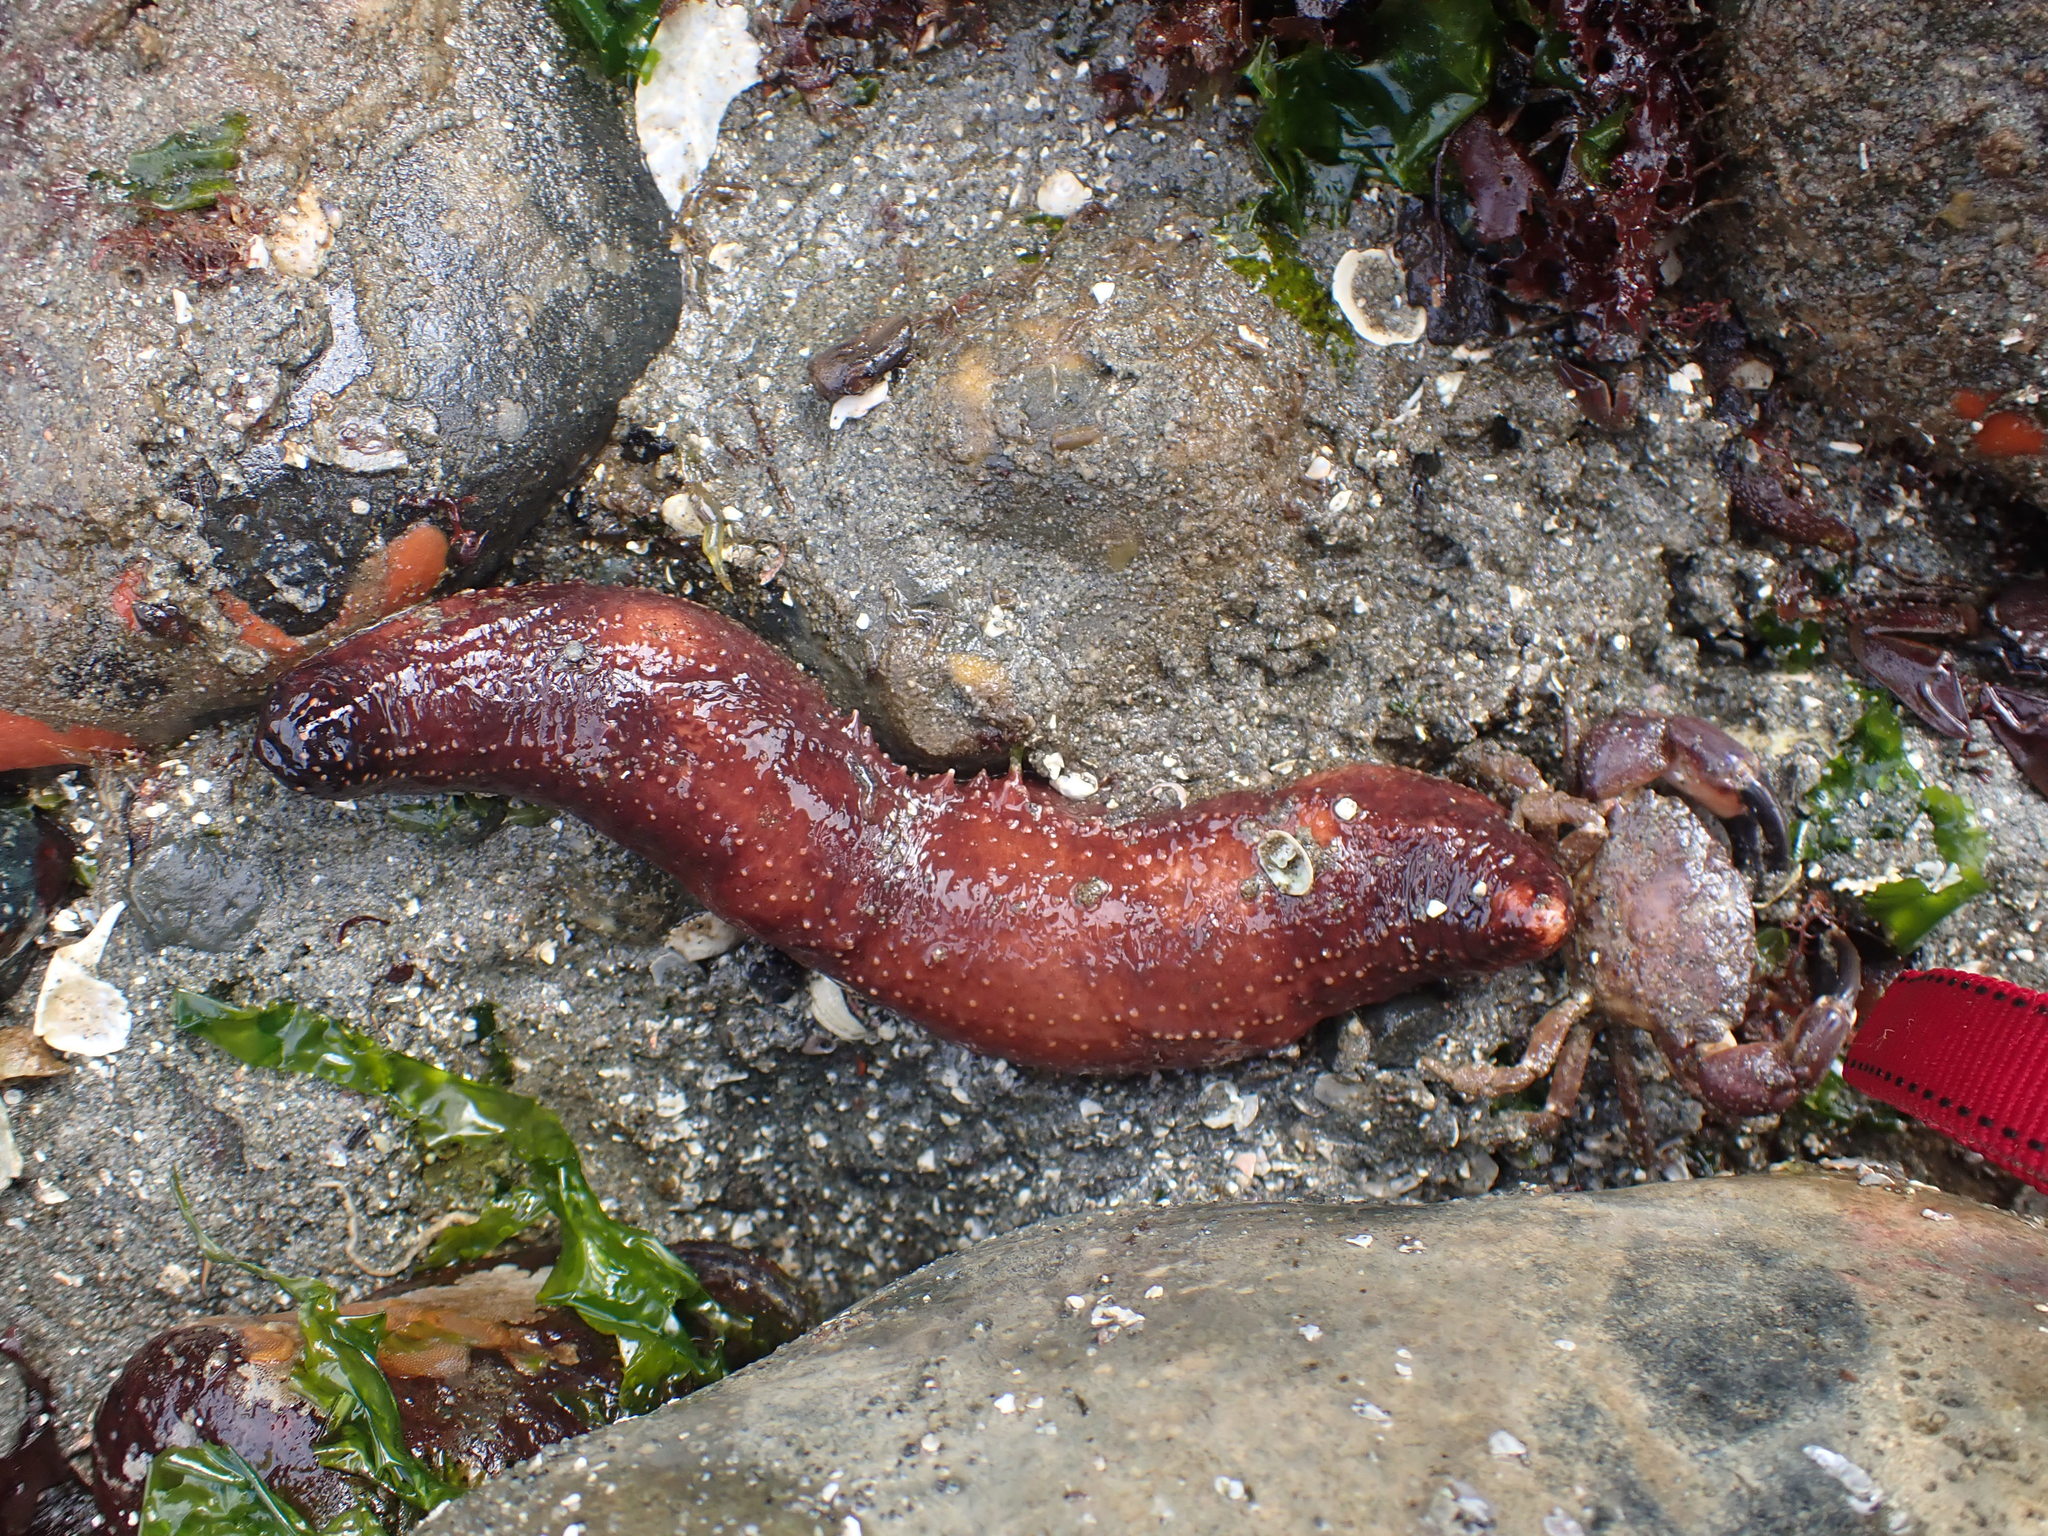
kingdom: Animalia
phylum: Echinodermata
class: Holothuroidea
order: Dendrochirotida
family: Cucumariidae
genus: Cucumaria
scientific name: Cucumaria miniata
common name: Orange sea cucumber
